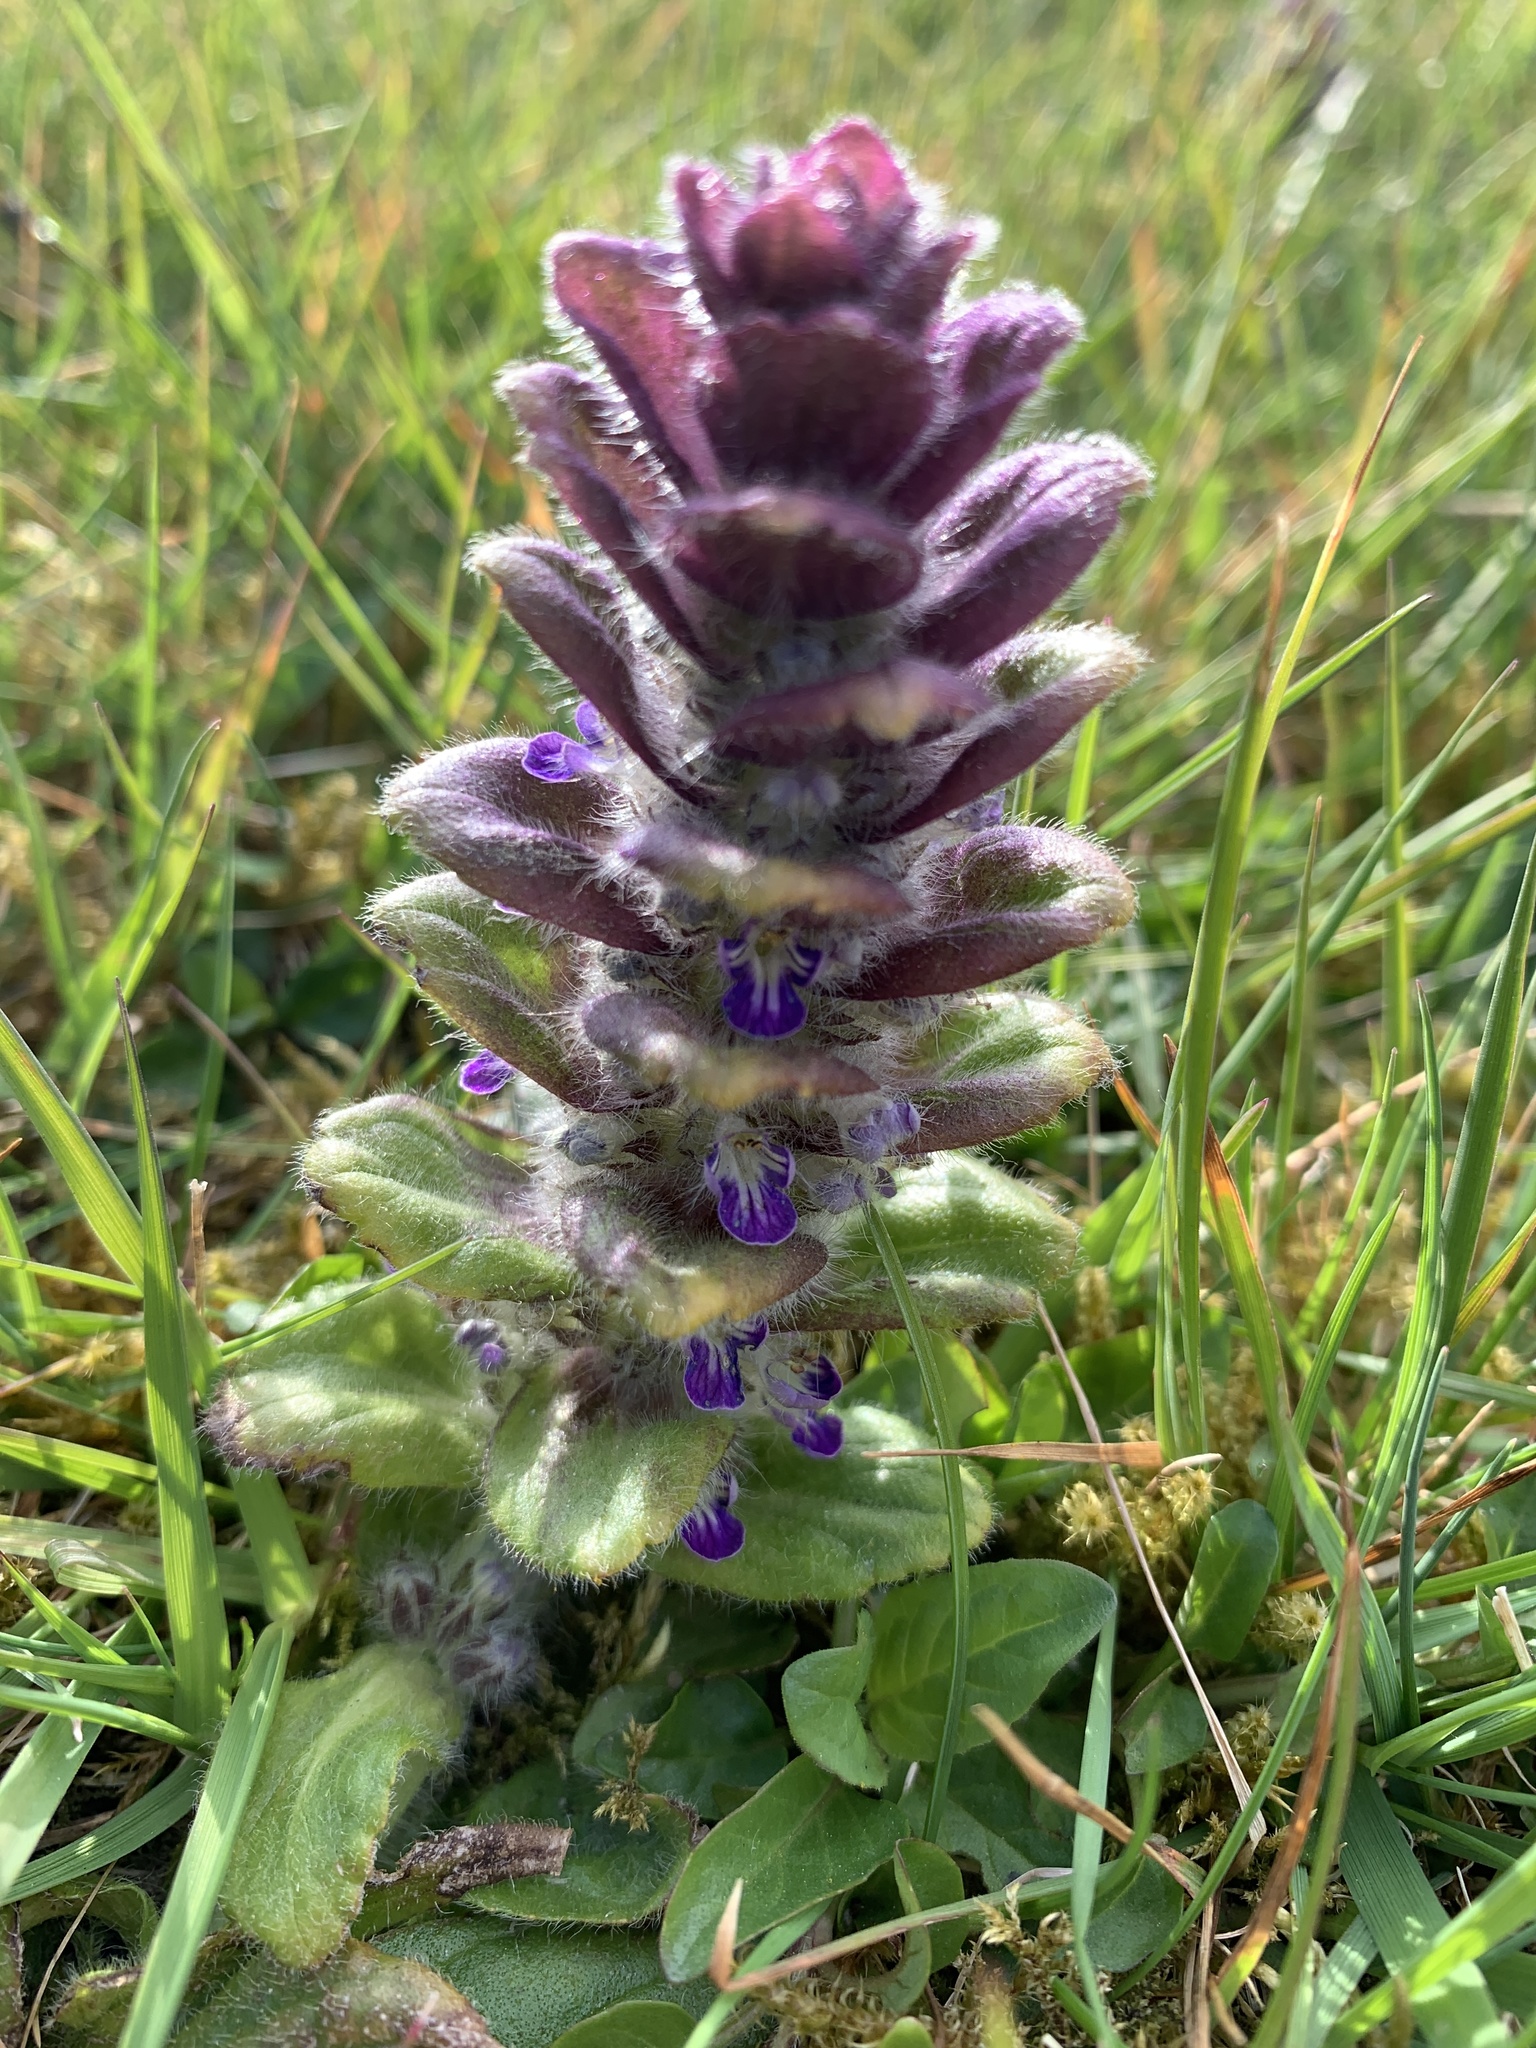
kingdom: Plantae
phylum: Tracheophyta
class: Magnoliopsida
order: Lamiales
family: Lamiaceae
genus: Ajuga
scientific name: Ajuga pyramidalis
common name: Pyramid bugle
